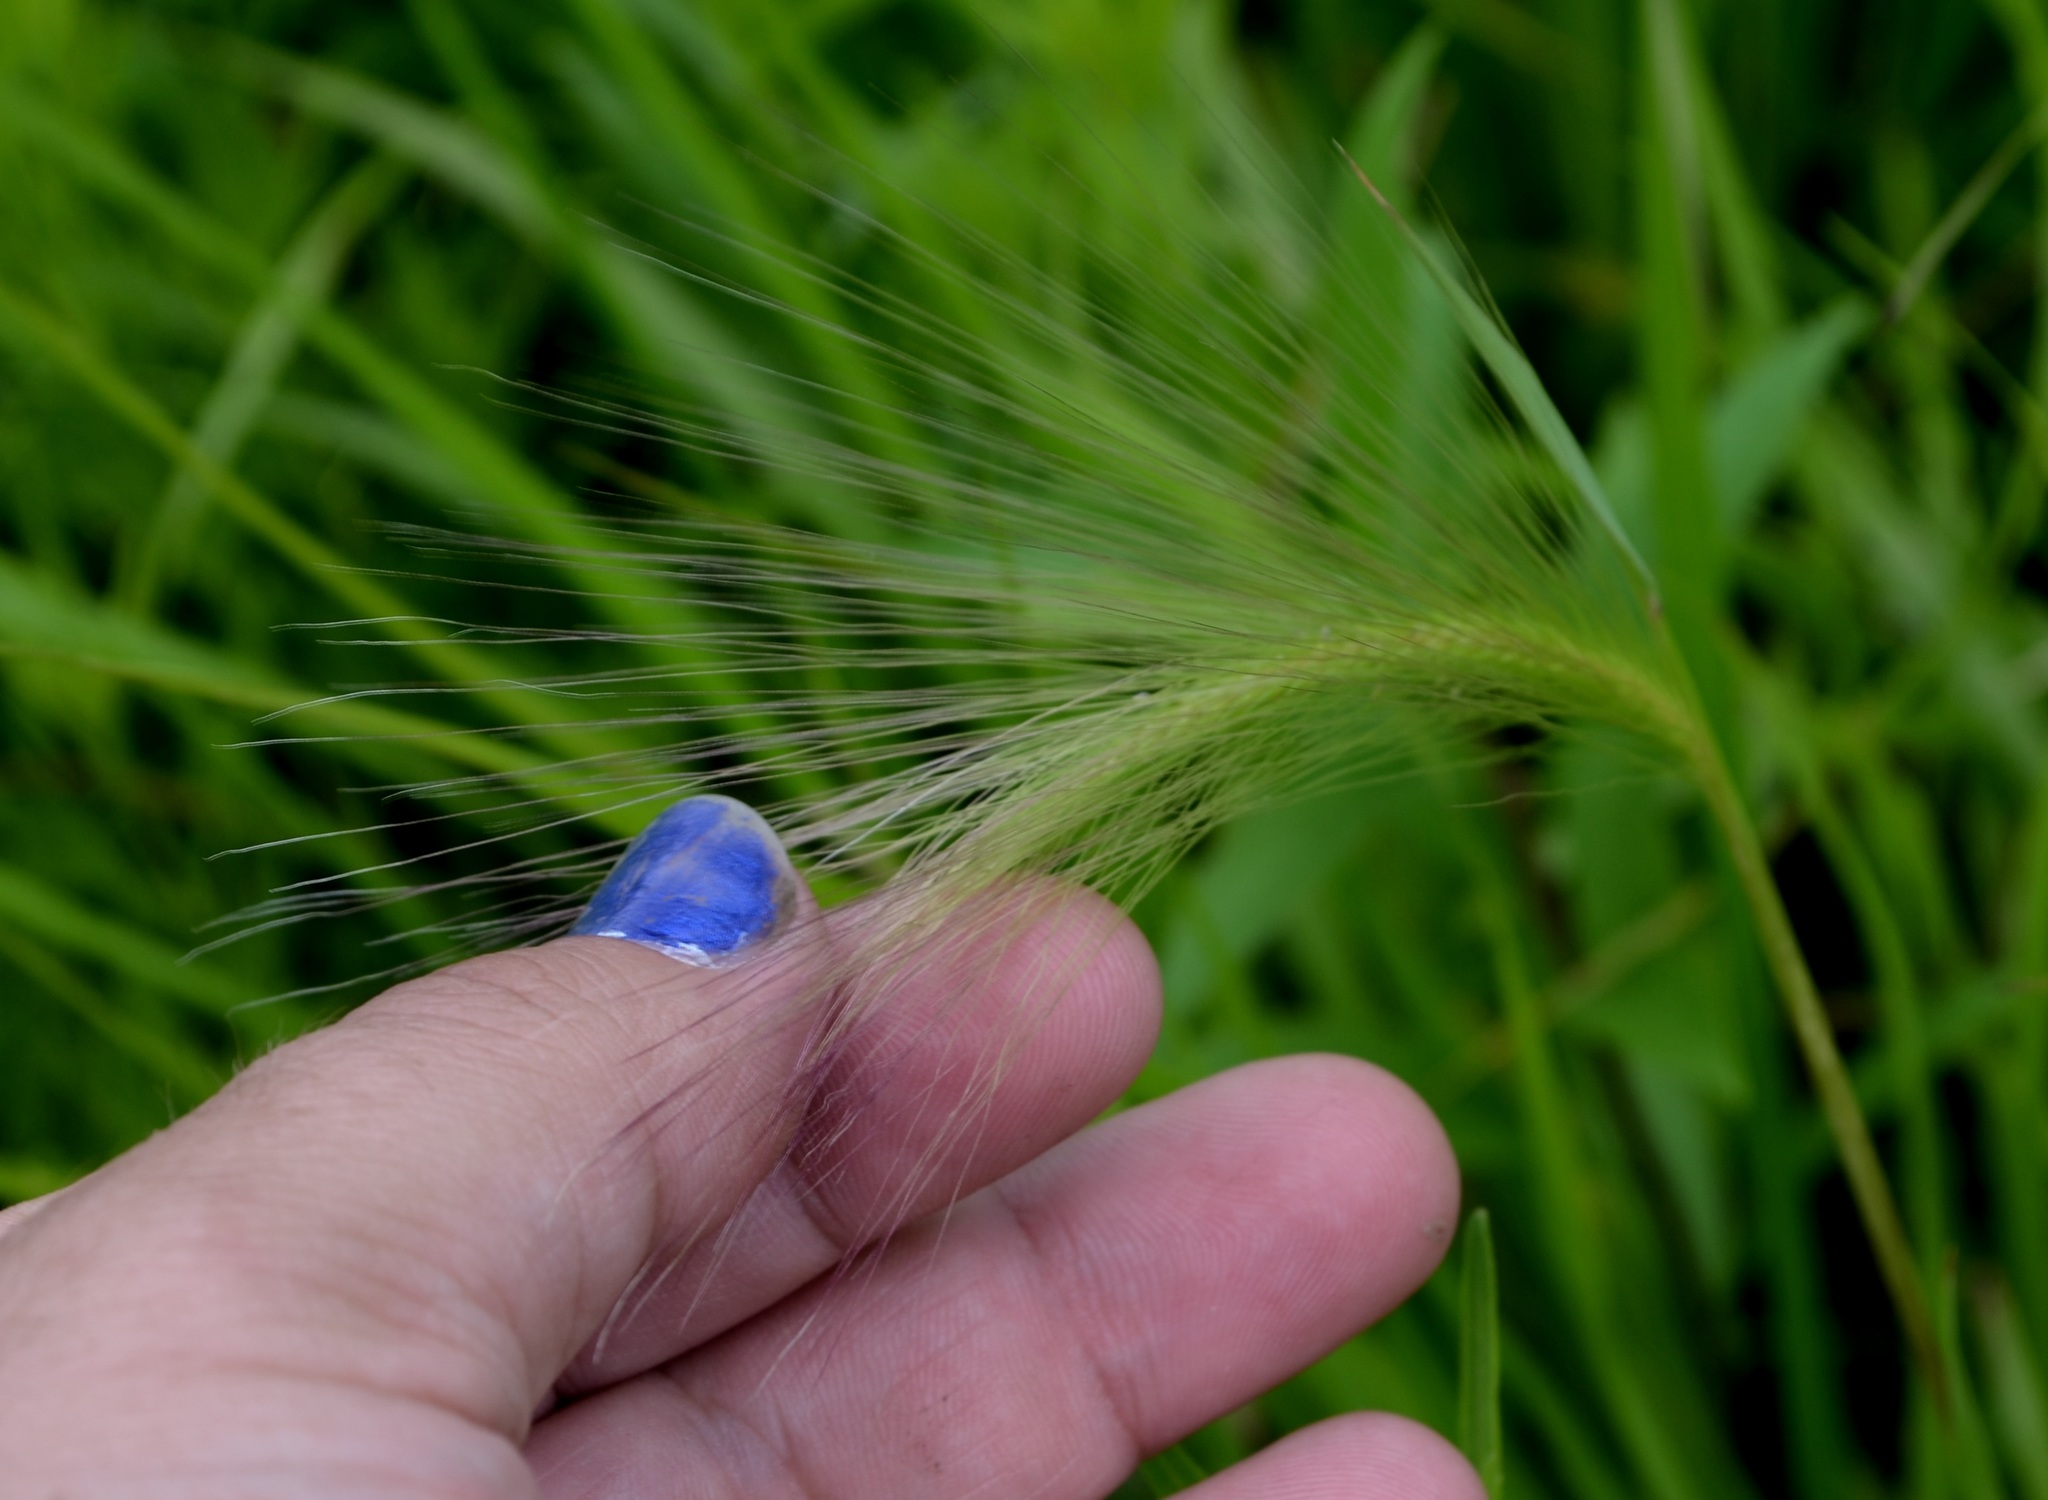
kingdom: Plantae
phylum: Tracheophyta
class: Liliopsida
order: Poales
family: Poaceae
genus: Hordeum
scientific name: Hordeum jubatum
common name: Foxtail barley
